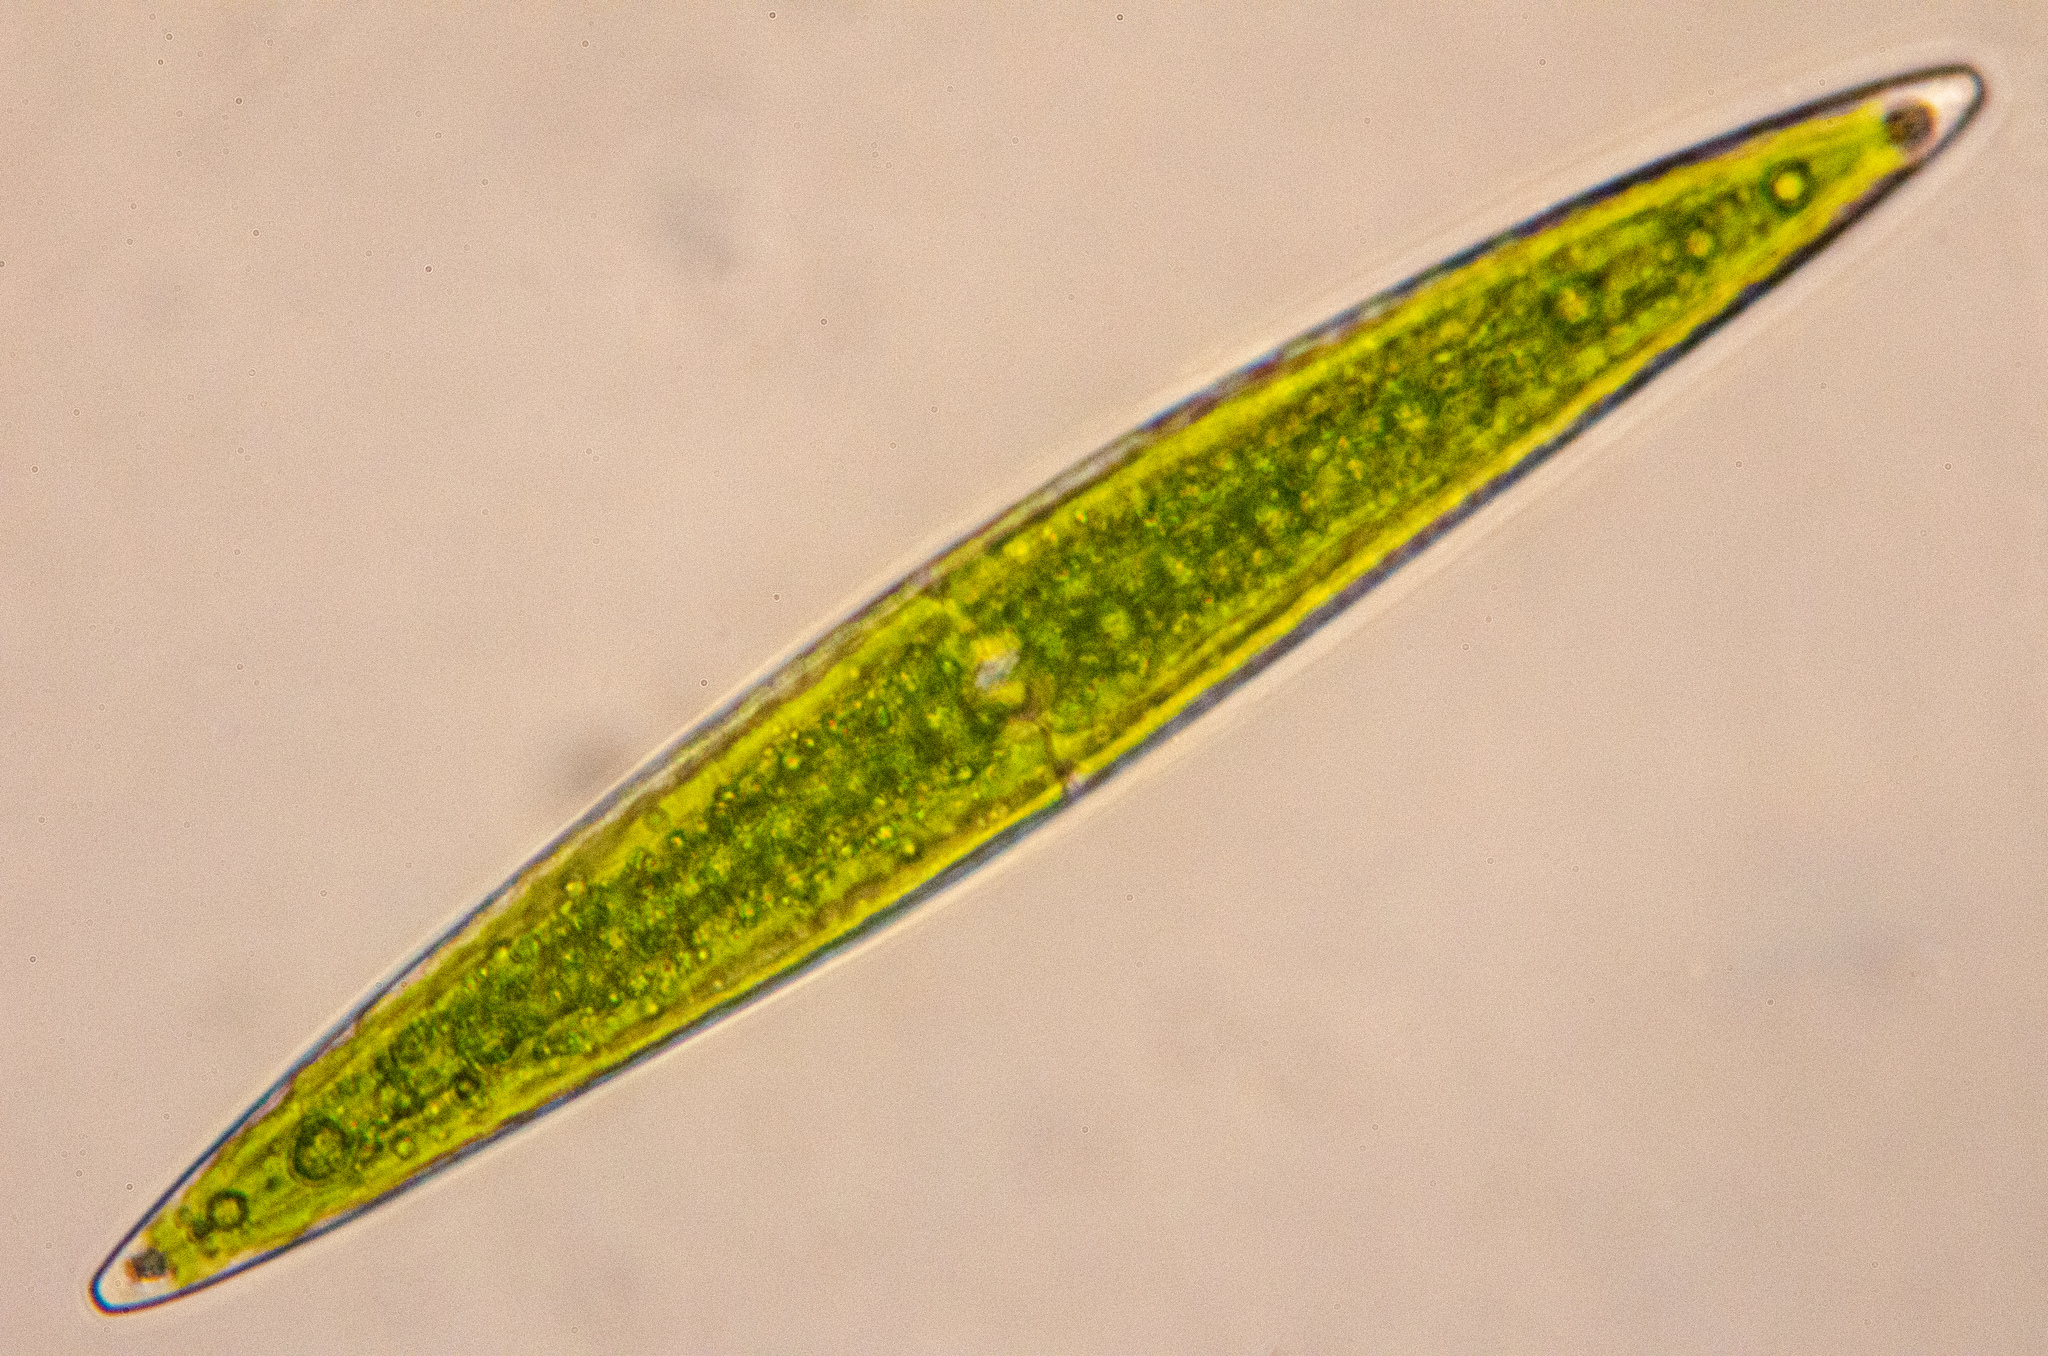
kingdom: Plantae
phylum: Charophyta
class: Zygnematophyceae
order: Zygnematales
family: Closteriaceae
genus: Closterium
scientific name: Closterium lanceolatum
